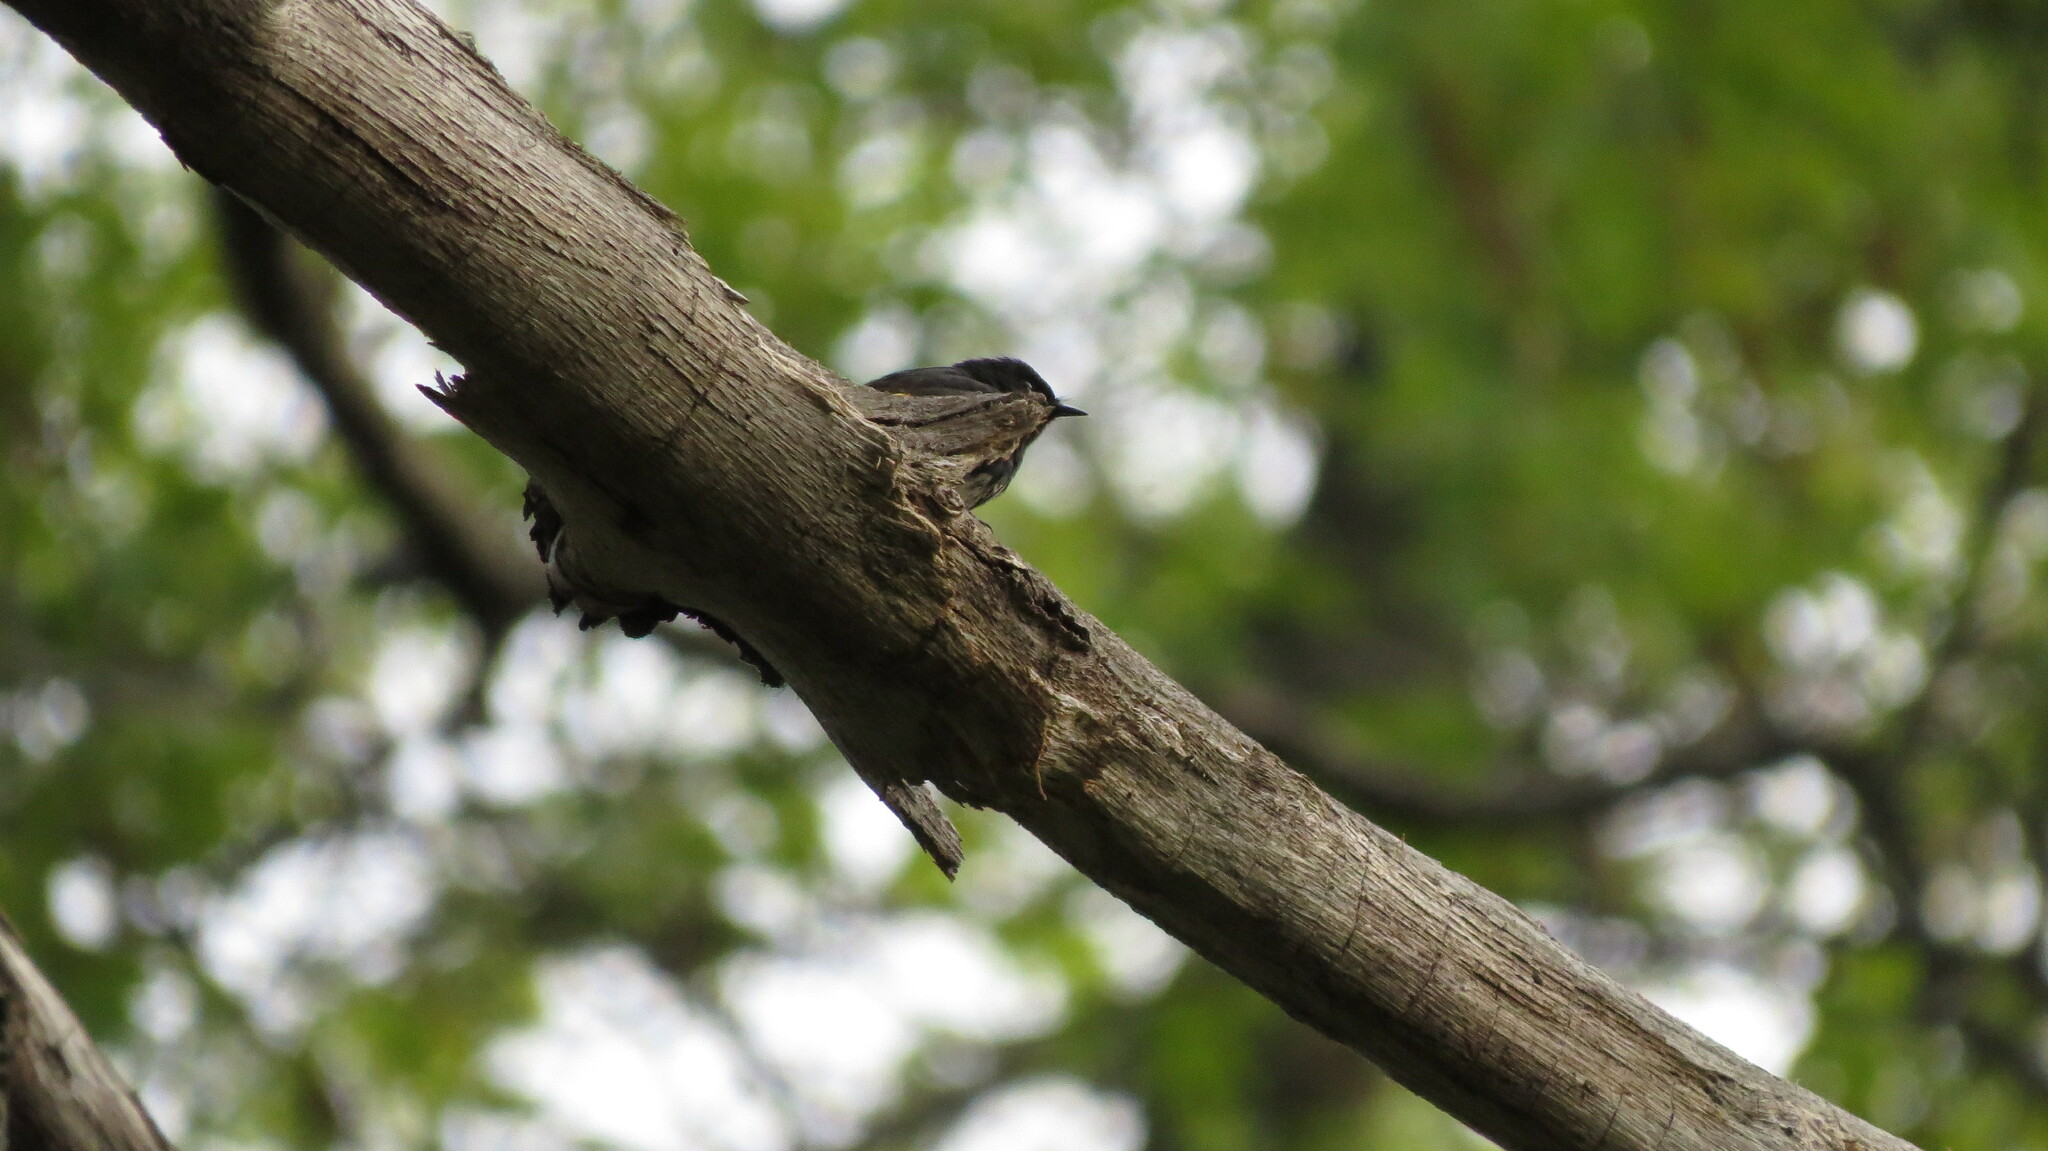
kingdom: Animalia
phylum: Chordata
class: Aves
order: Passeriformes
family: Parulidae
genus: Setophaga
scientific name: Setophaga ruticilla
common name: American redstart
